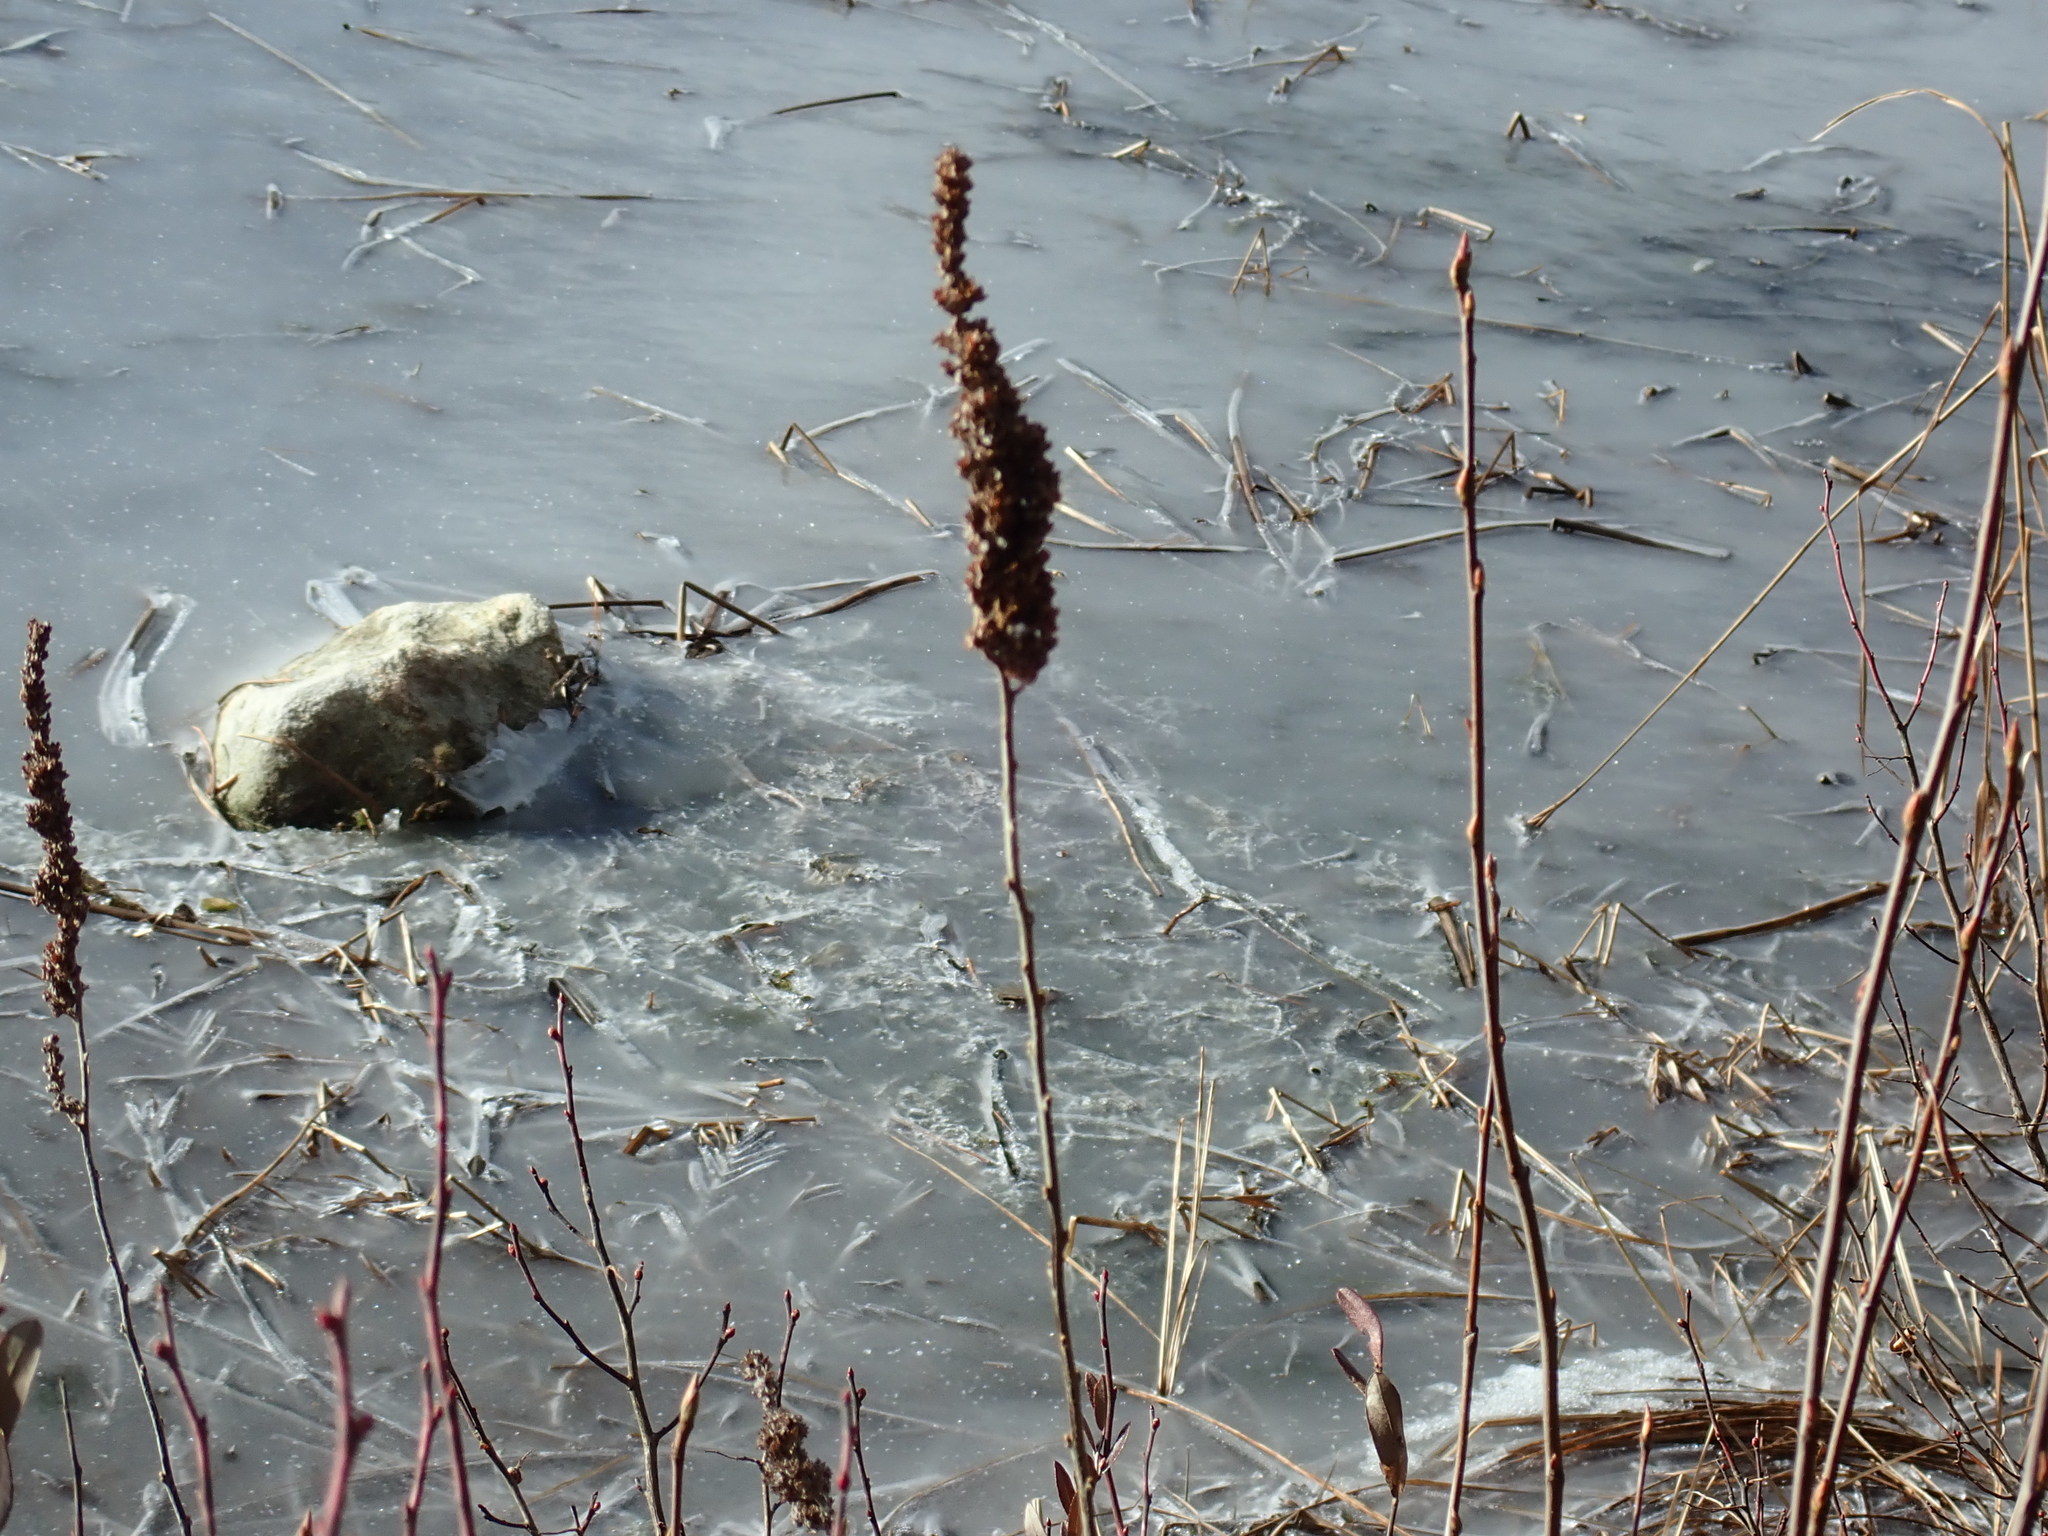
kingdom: Plantae
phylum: Tracheophyta
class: Magnoliopsida
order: Rosales
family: Rosaceae
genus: Spiraea
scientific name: Spiraea tomentosa
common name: Hardhack
